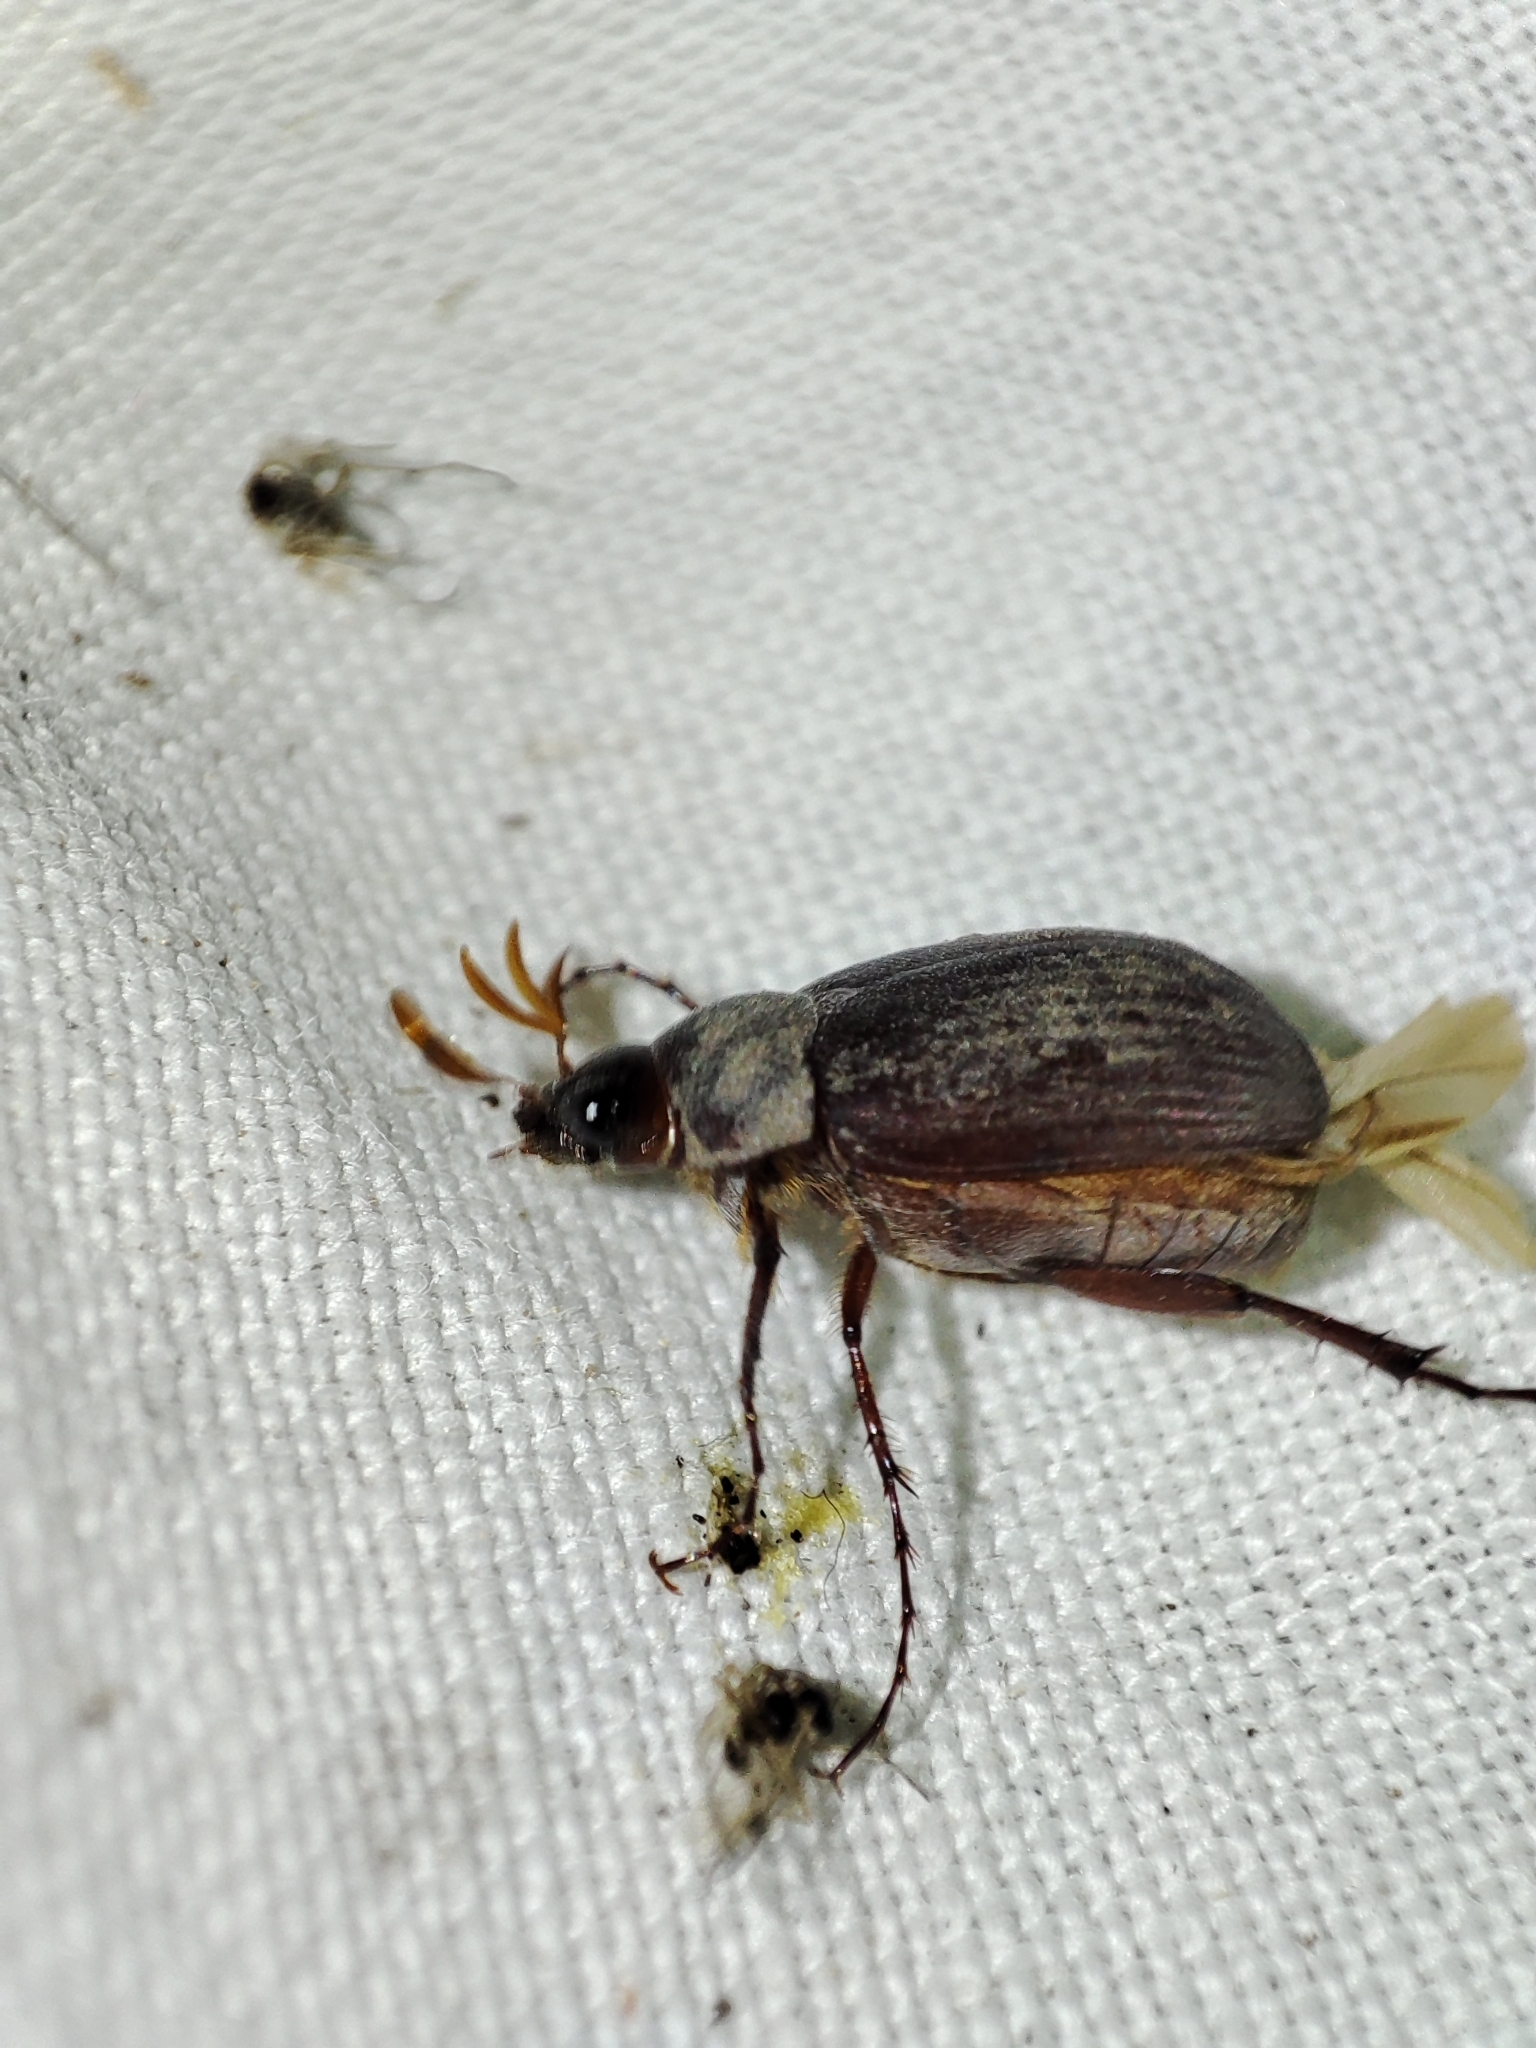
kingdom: Animalia
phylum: Arthropoda
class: Insecta
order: Coleoptera
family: Scarabaeidae
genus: Maladera
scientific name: Maladera holosericea
